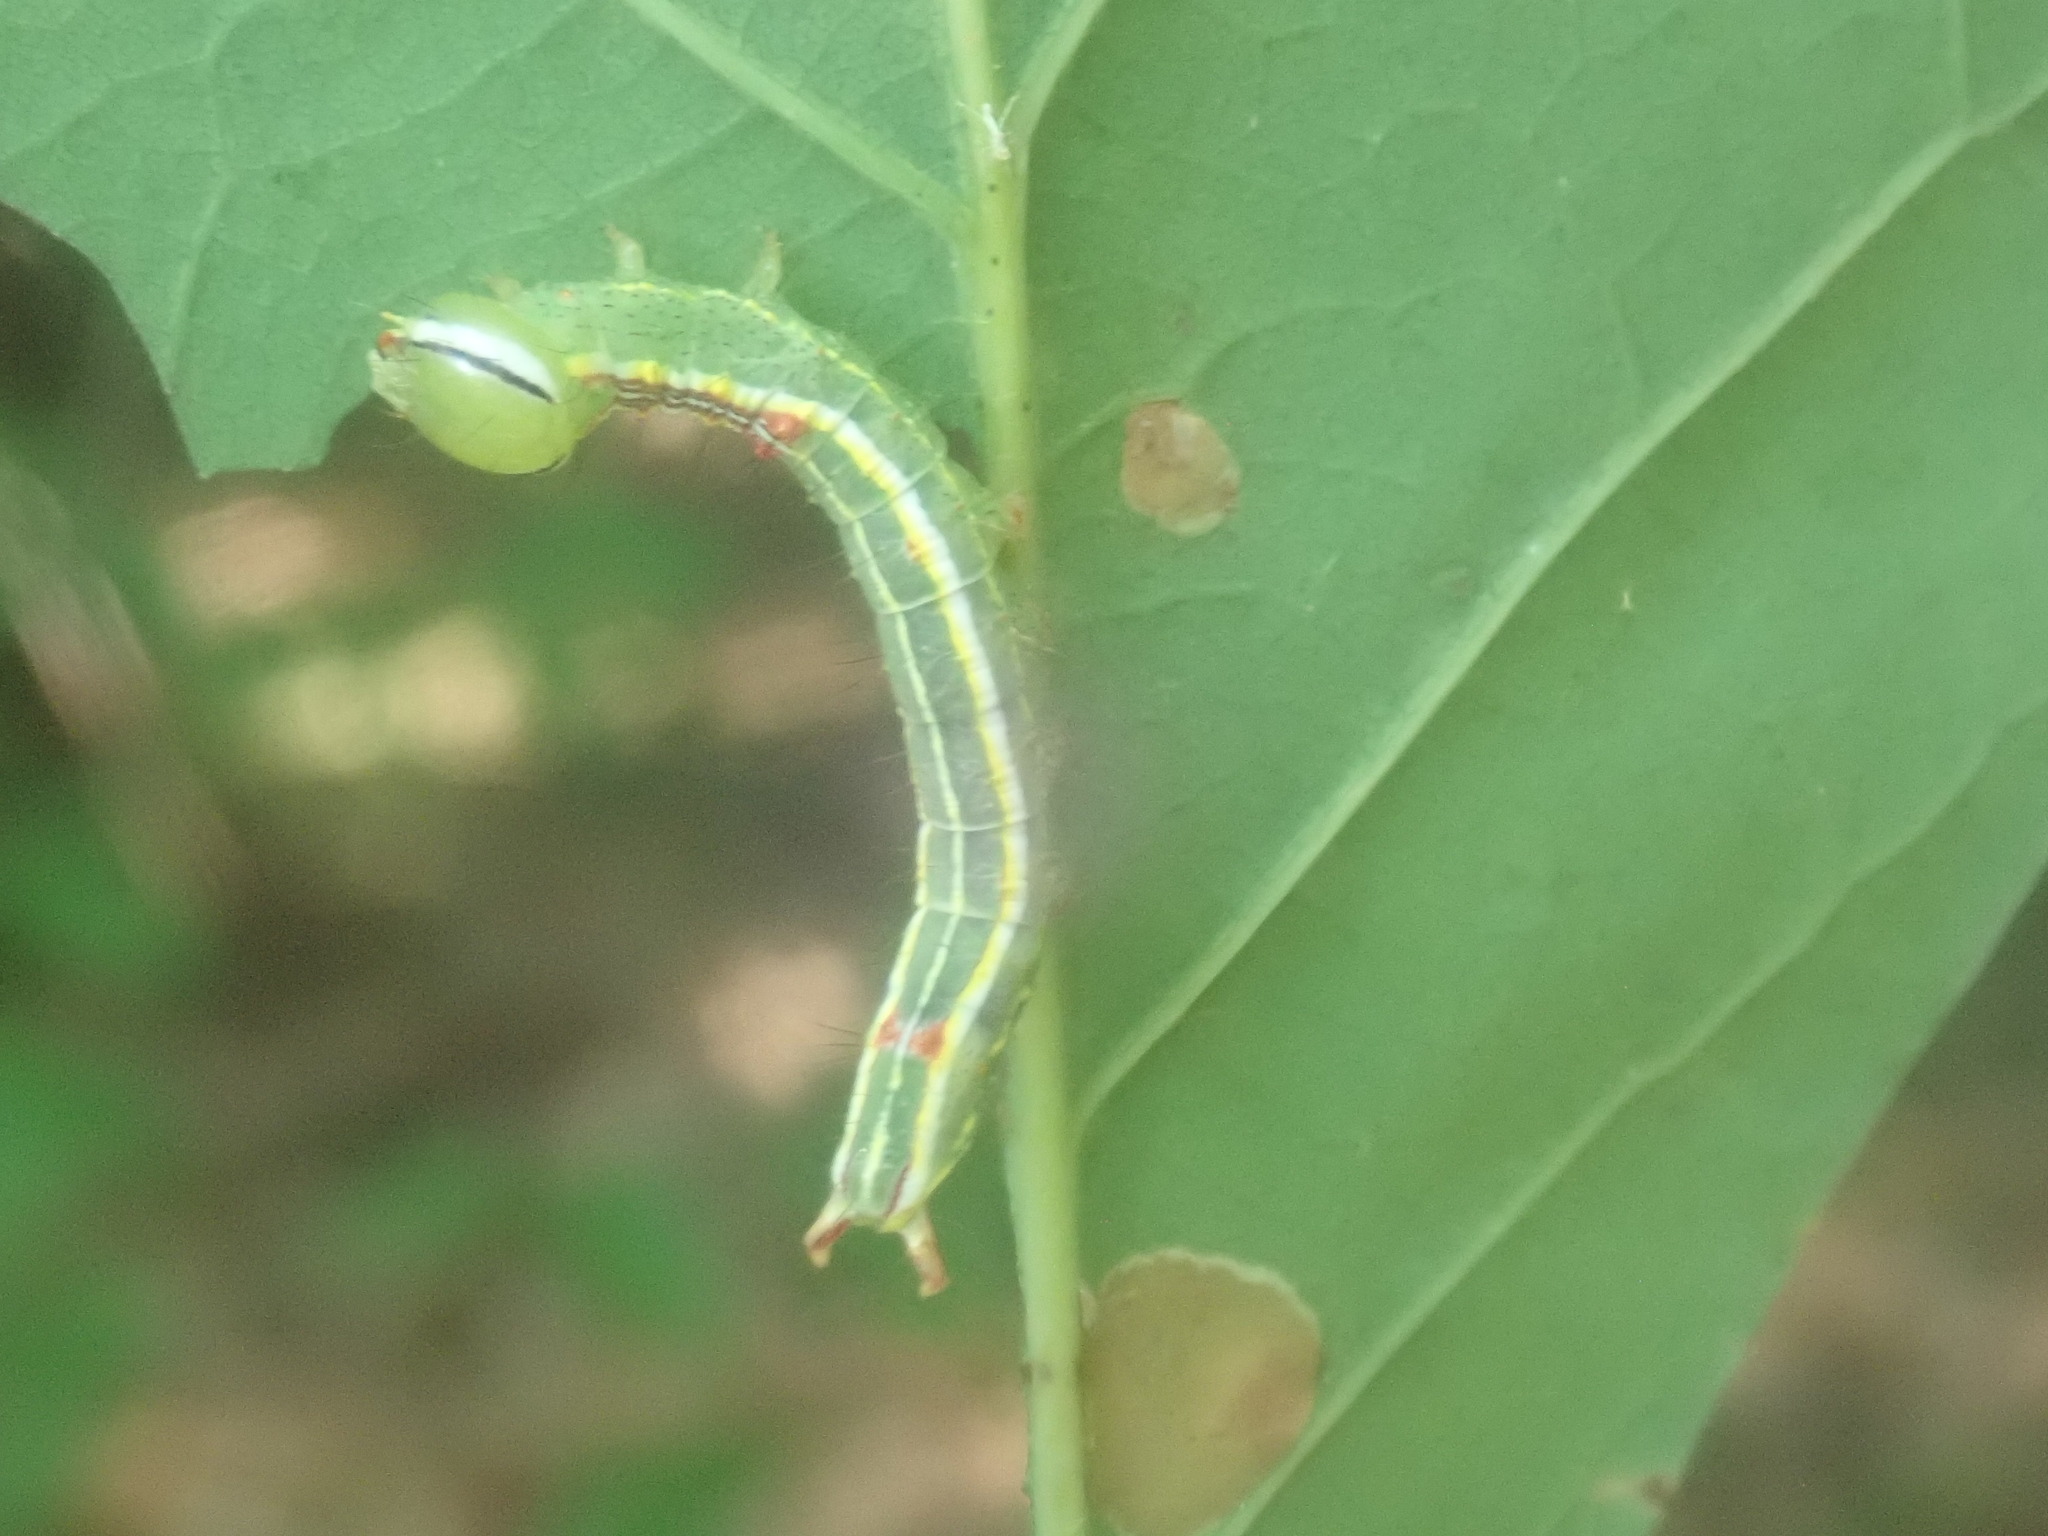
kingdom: Animalia
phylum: Arthropoda
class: Insecta
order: Lepidoptera
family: Notodontidae
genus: Lochmaeus
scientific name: Lochmaeus manteo
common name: Variable oakleaf caterpillar moth
